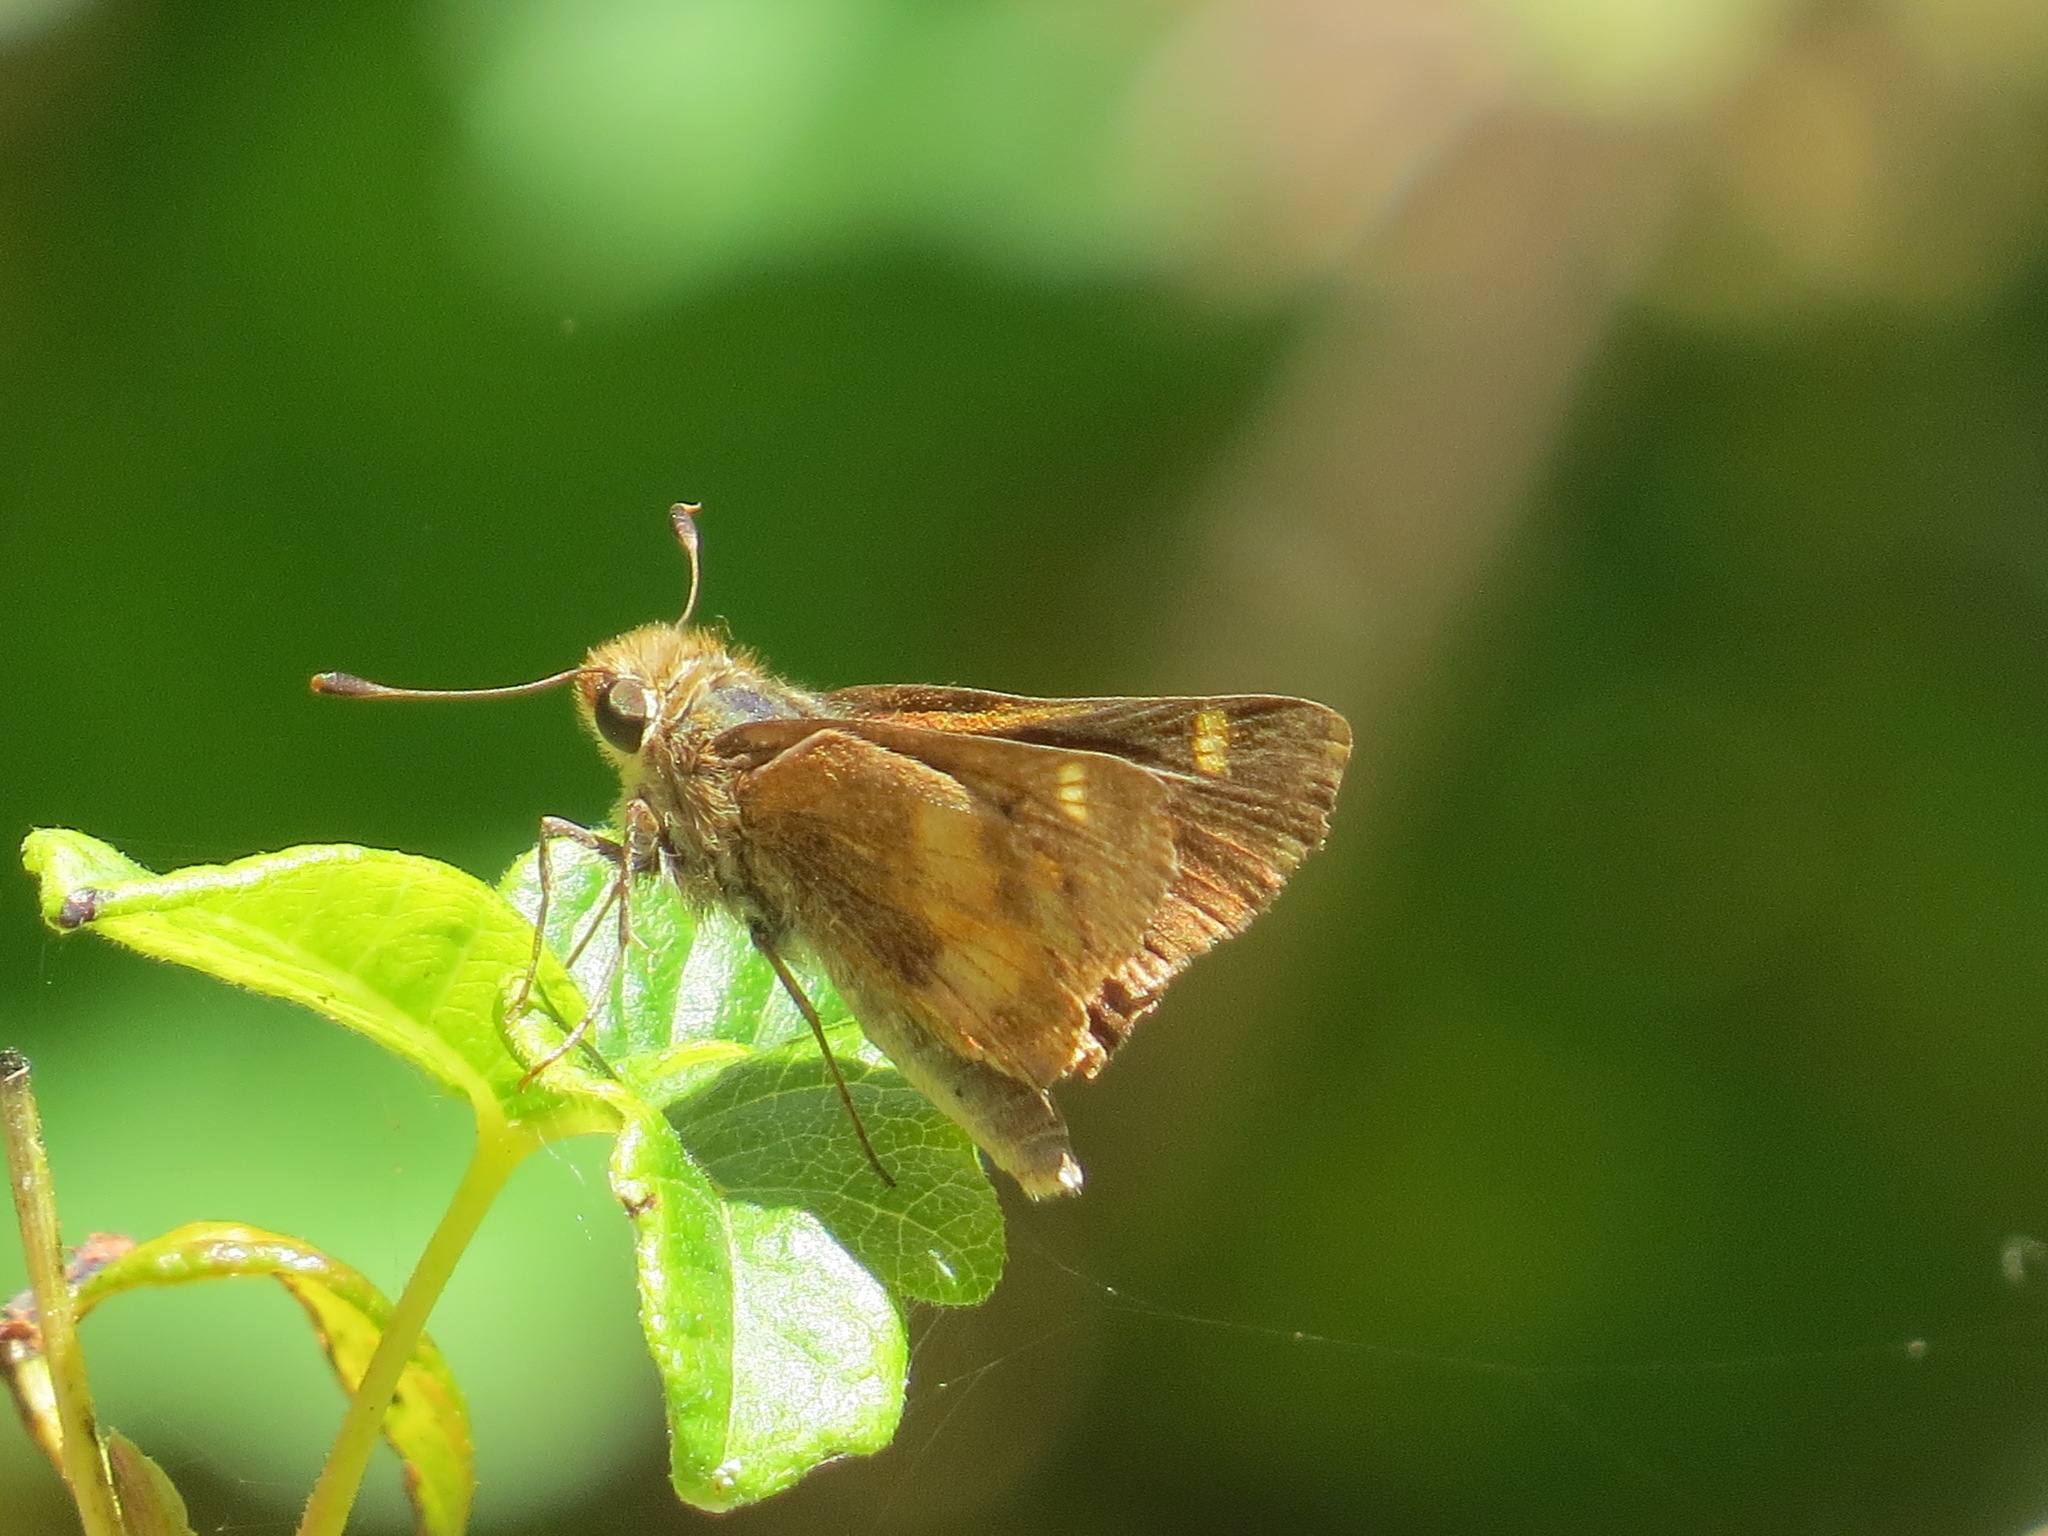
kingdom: Animalia
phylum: Arthropoda
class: Insecta
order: Lepidoptera
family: Hesperiidae
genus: Lon
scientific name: Lon melane
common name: Umber skipper
